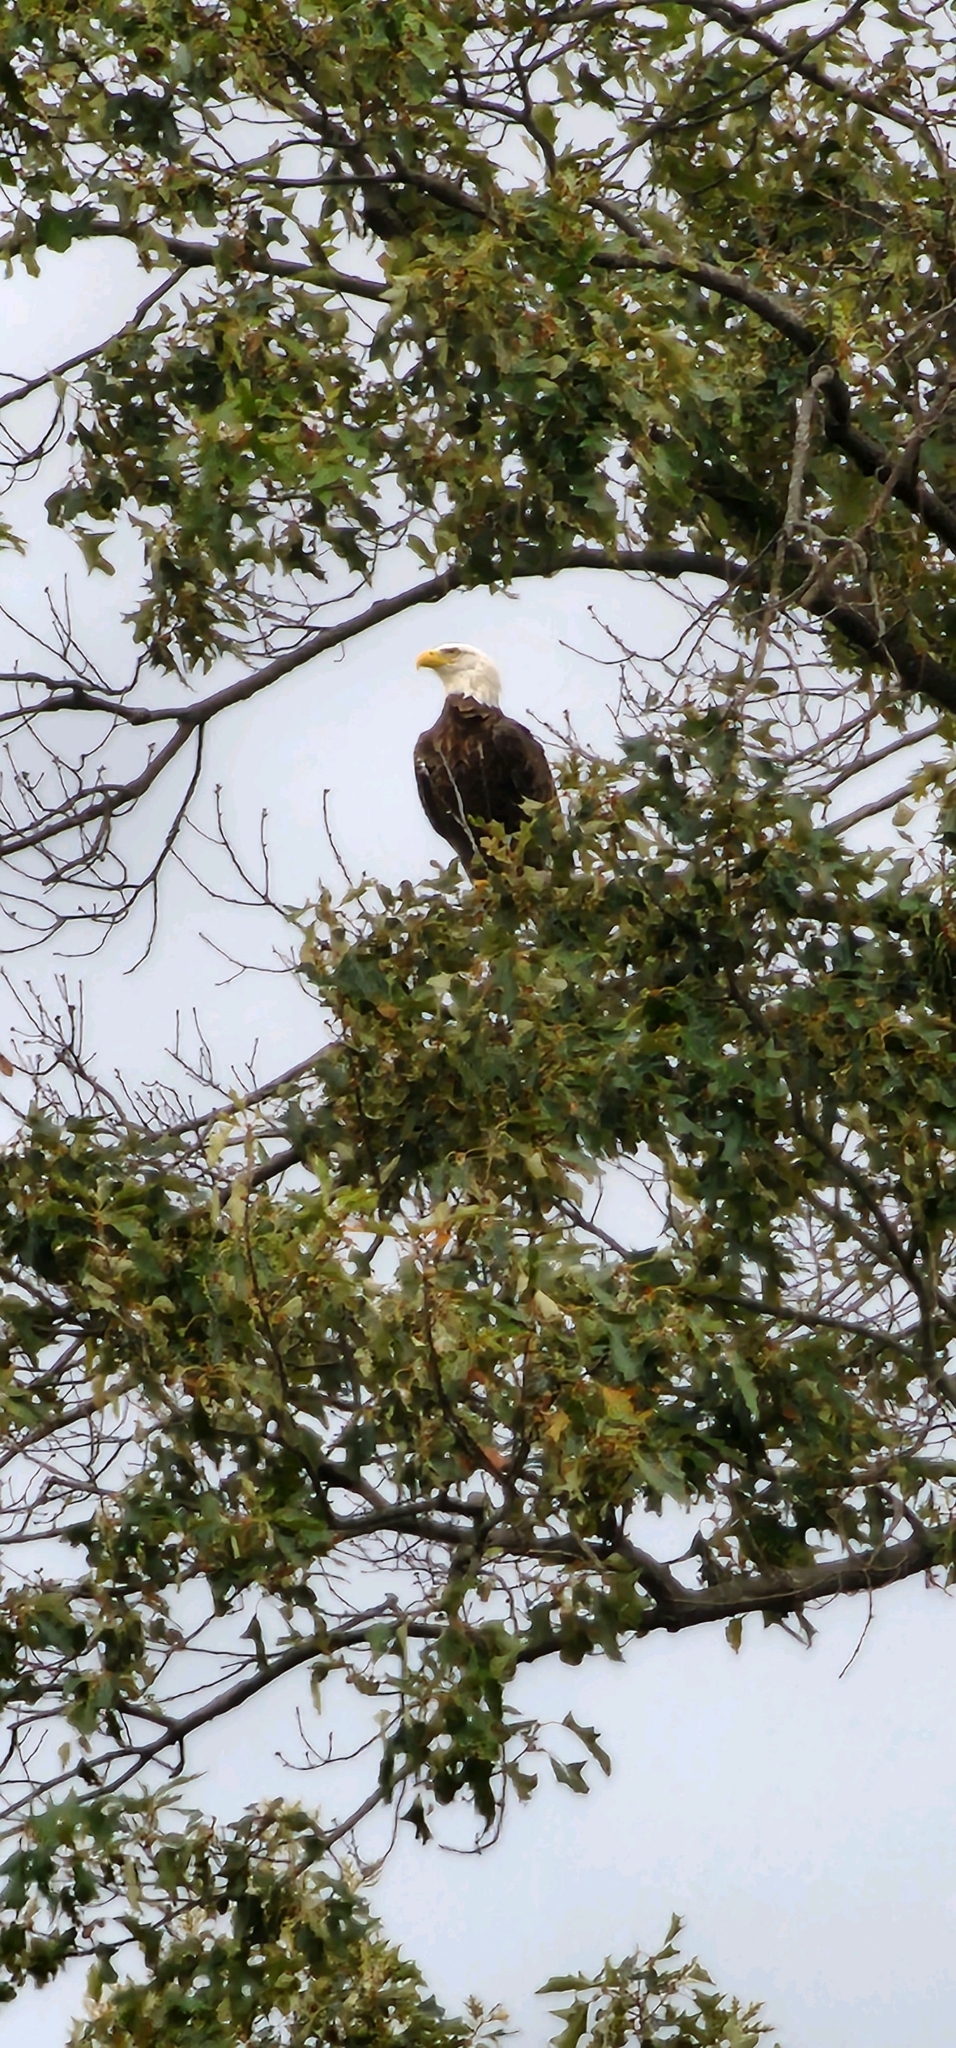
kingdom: Animalia
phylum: Chordata
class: Aves
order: Accipitriformes
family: Accipitridae
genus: Haliaeetus
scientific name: Haliaeetus leucocephalus
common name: Bald eagle
